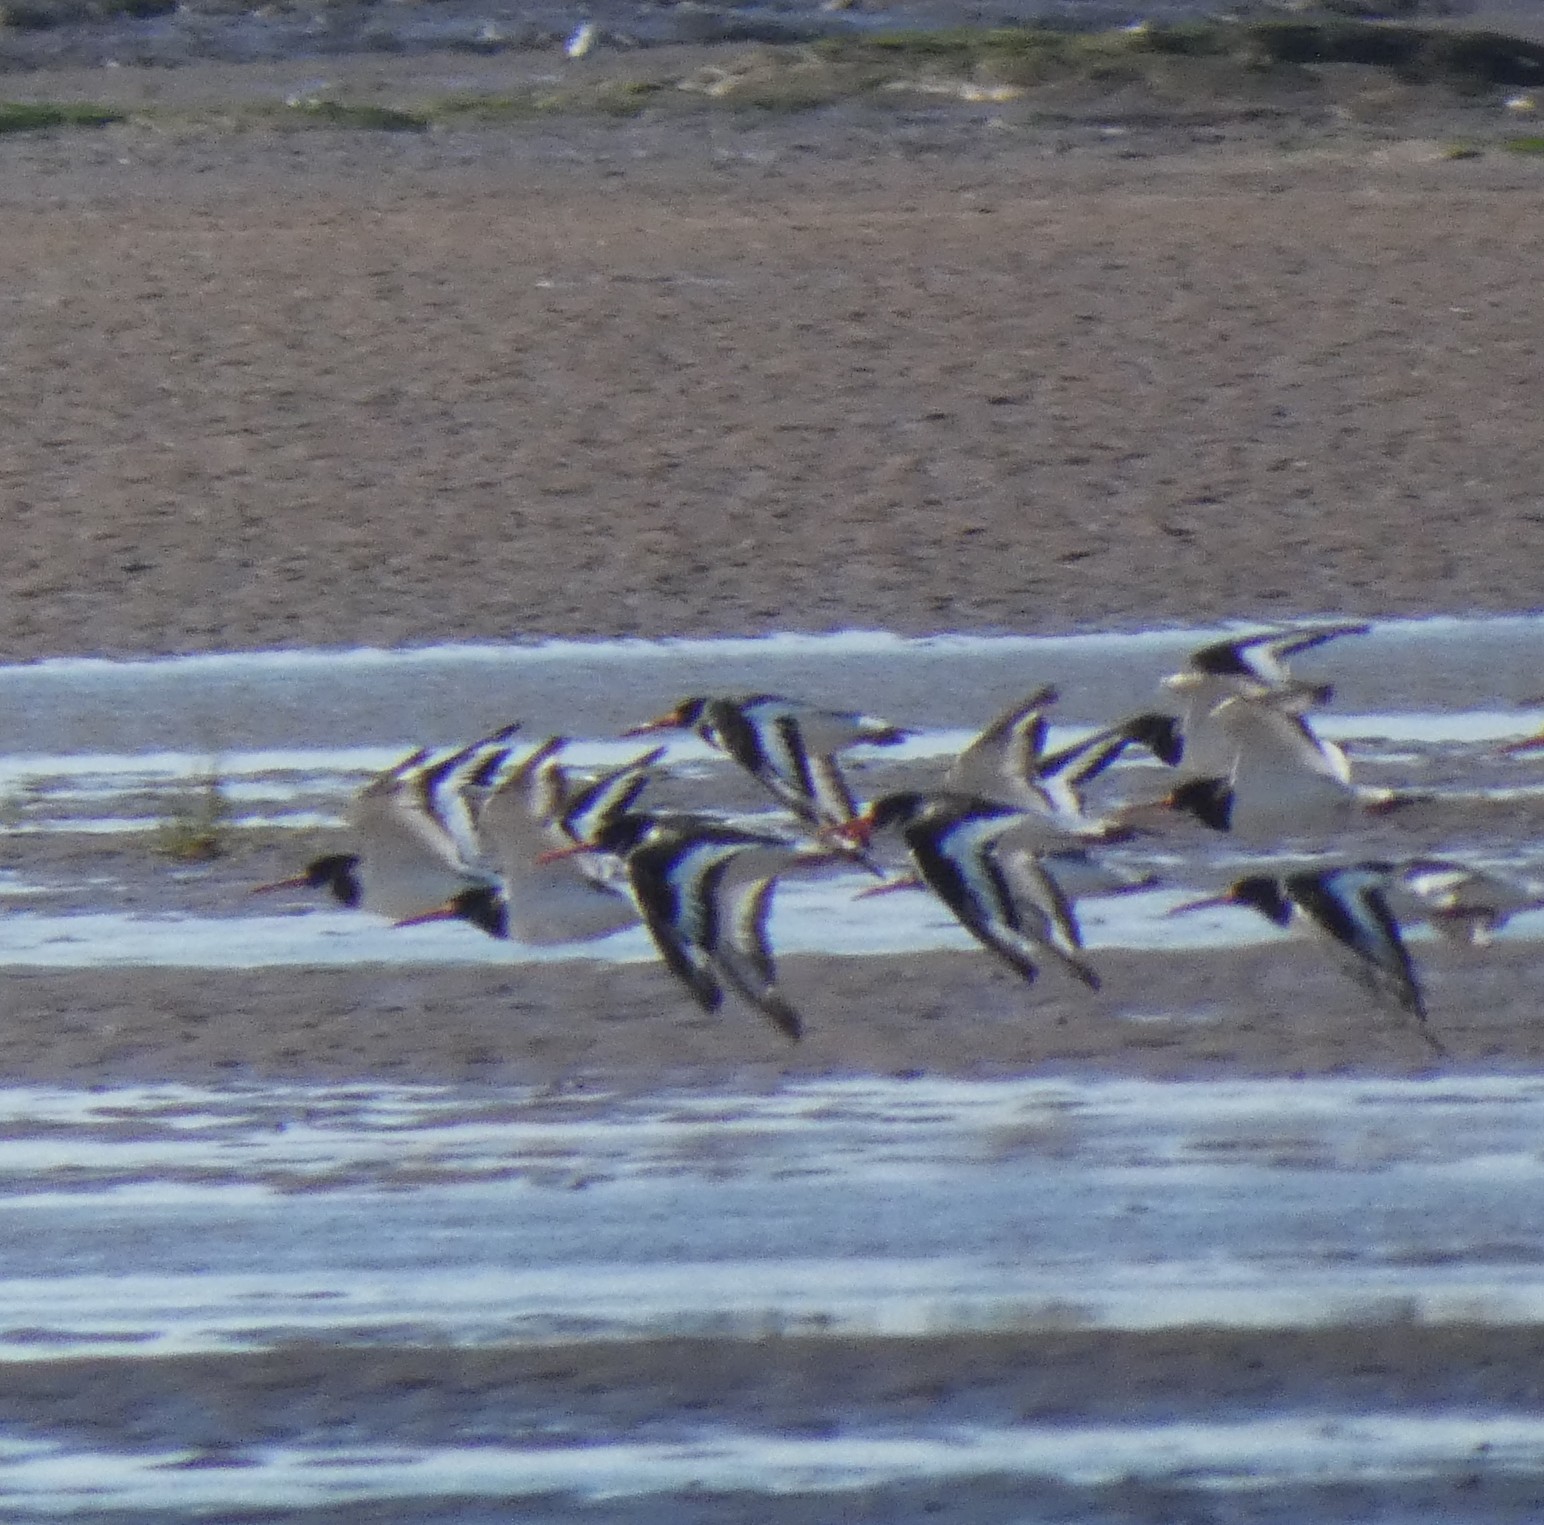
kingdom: Animalia
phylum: Chordata
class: Aves
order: Charadriiformes
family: Haematopodidae
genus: Haematopus
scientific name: Haematopus ostralegus
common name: Eurasian oystercatcher
